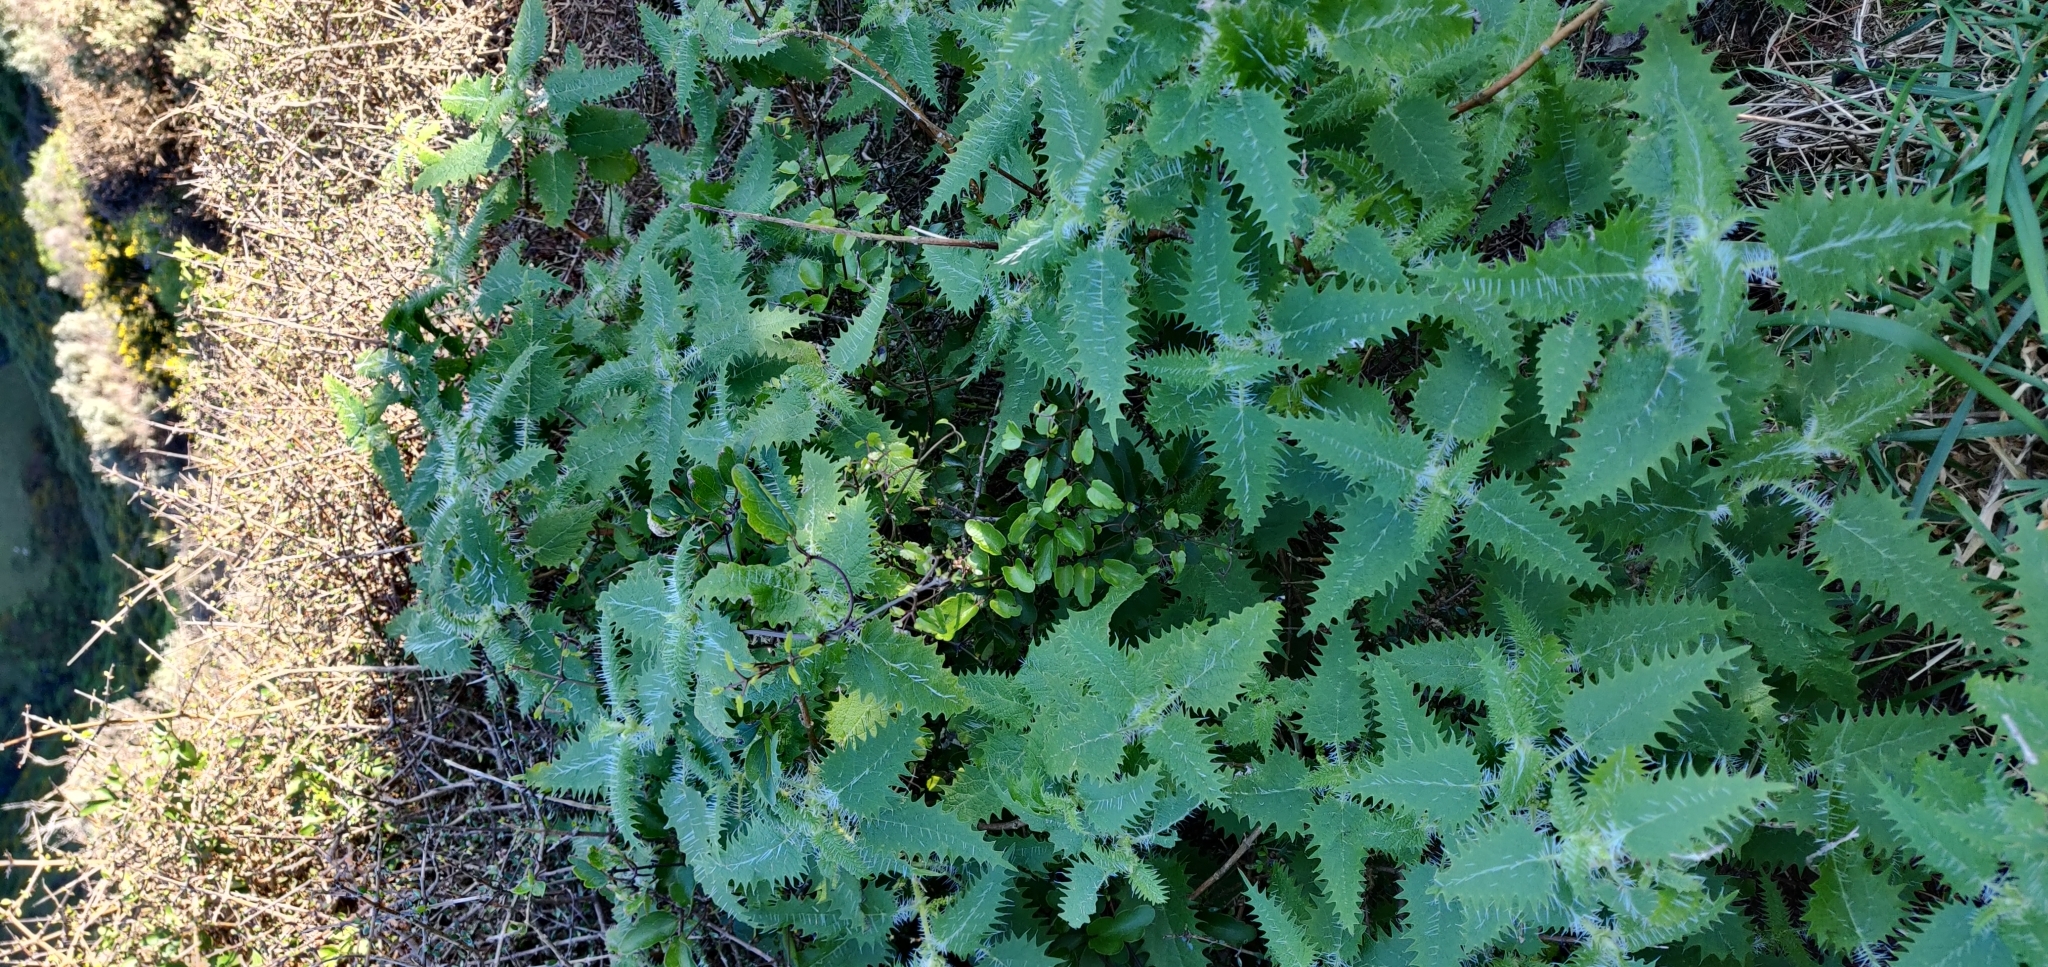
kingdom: Plantae
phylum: Tracheophyta
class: Magnoliopsida
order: Rosales
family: Urticaceae
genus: Urtica
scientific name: Urtica ferox
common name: Tree nettle
